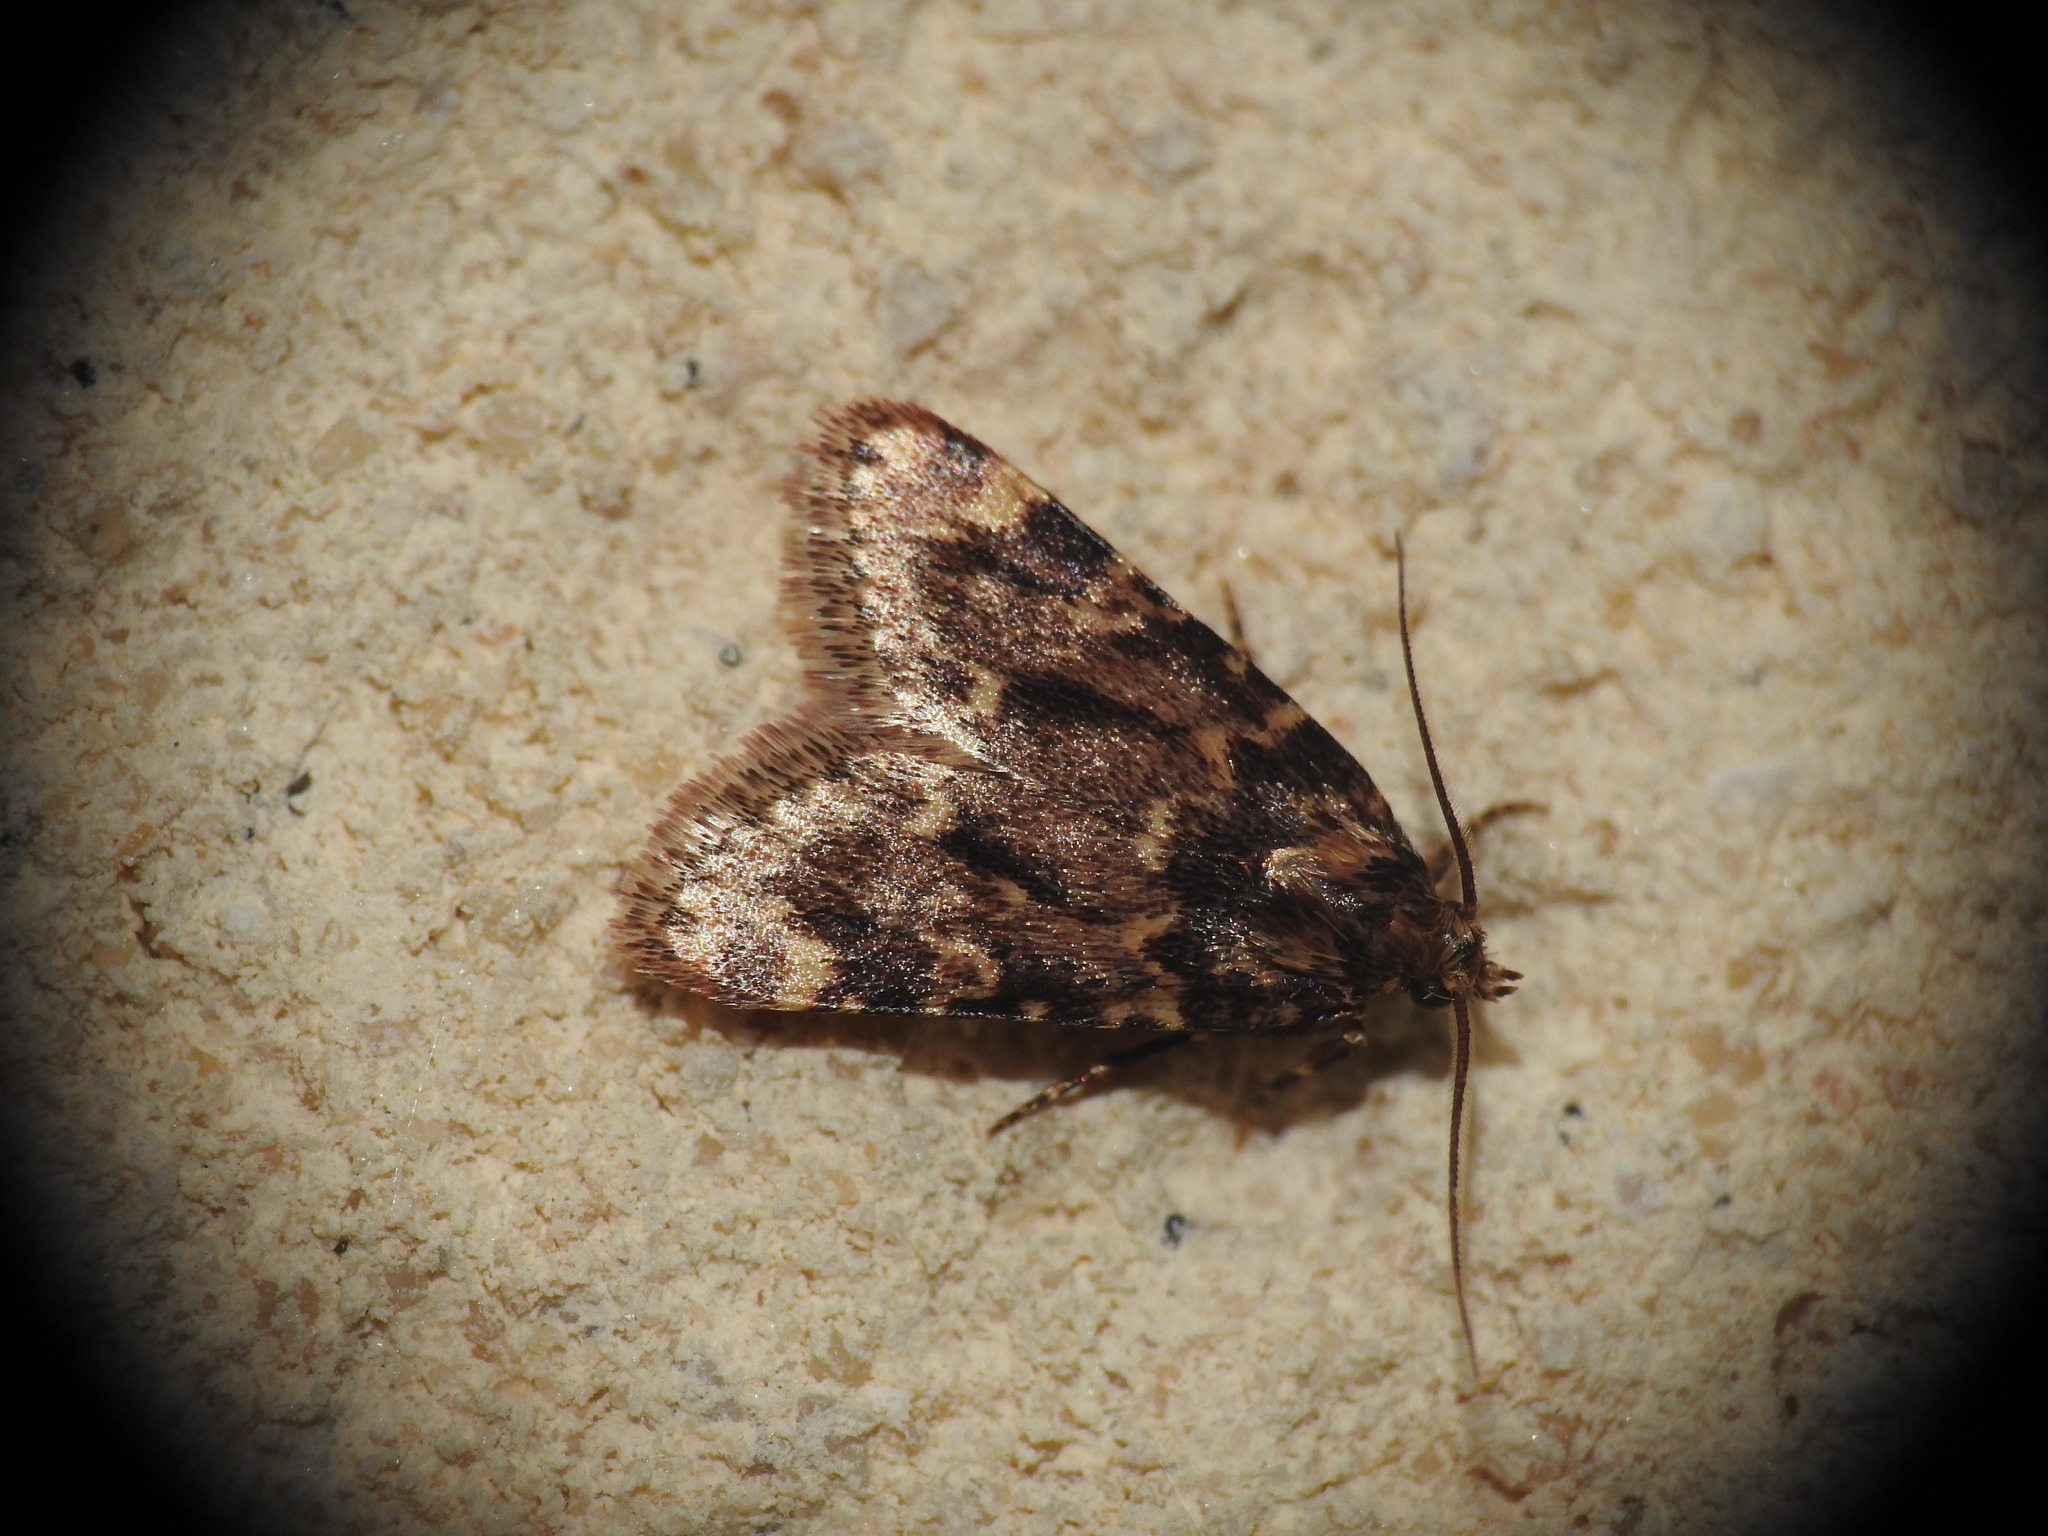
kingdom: Animalia
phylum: Arthropoda
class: Insecta
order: Lepidoptera
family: Pyralidae
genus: Aglossa
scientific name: Aglossa caprealis
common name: Small tabby
